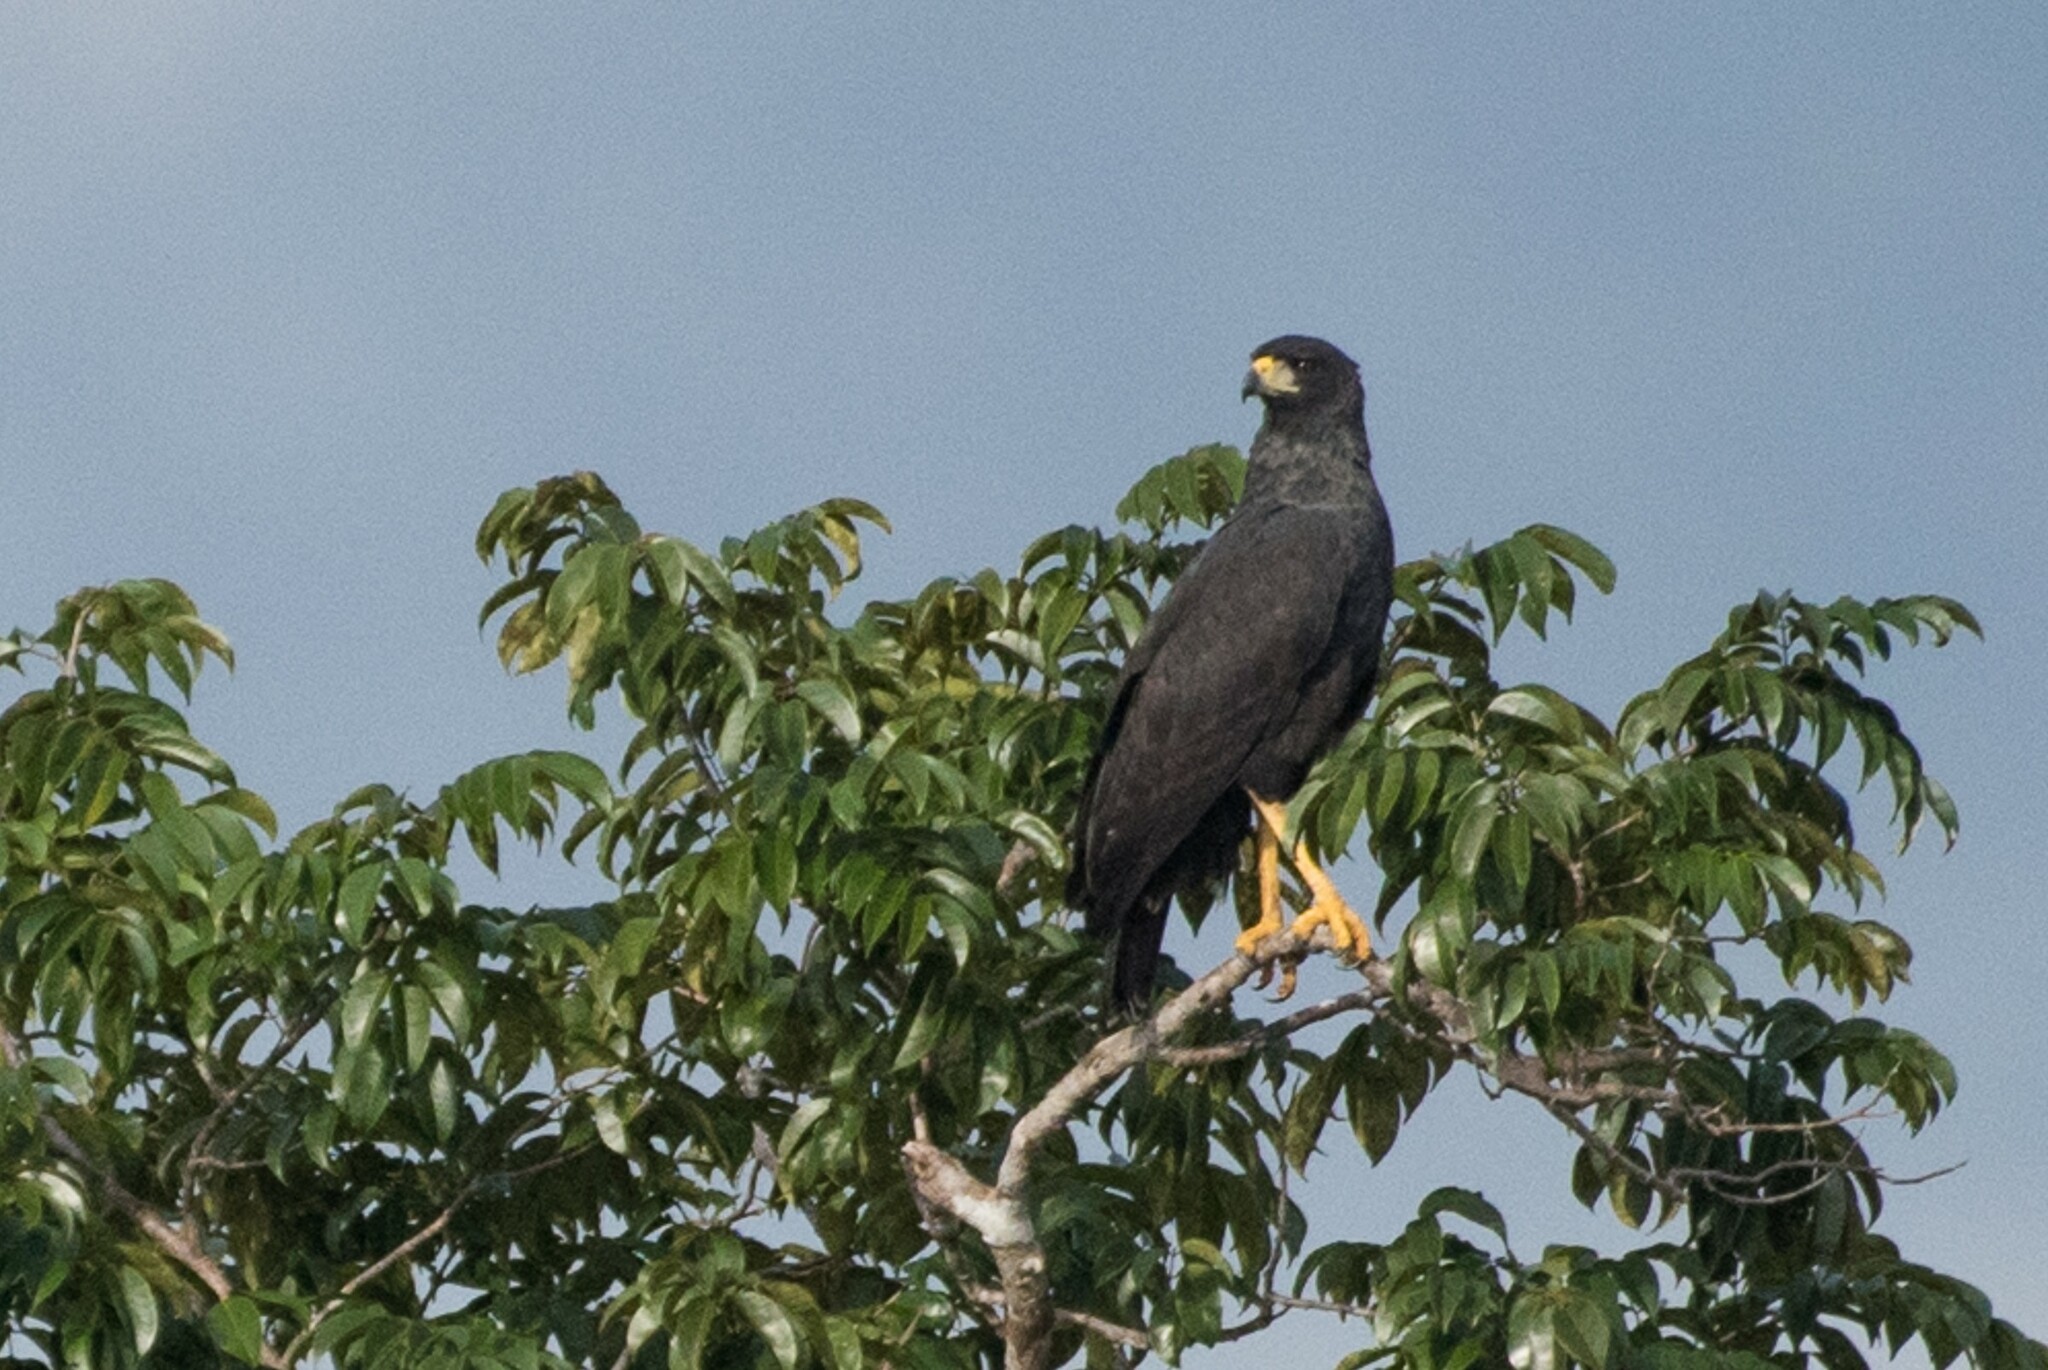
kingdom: Animalia
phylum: Chordata
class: Aves
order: Accipitriformes
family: Accipitridae
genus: Buteogallus
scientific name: Buteogallus urubitinga
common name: Great black hawk
